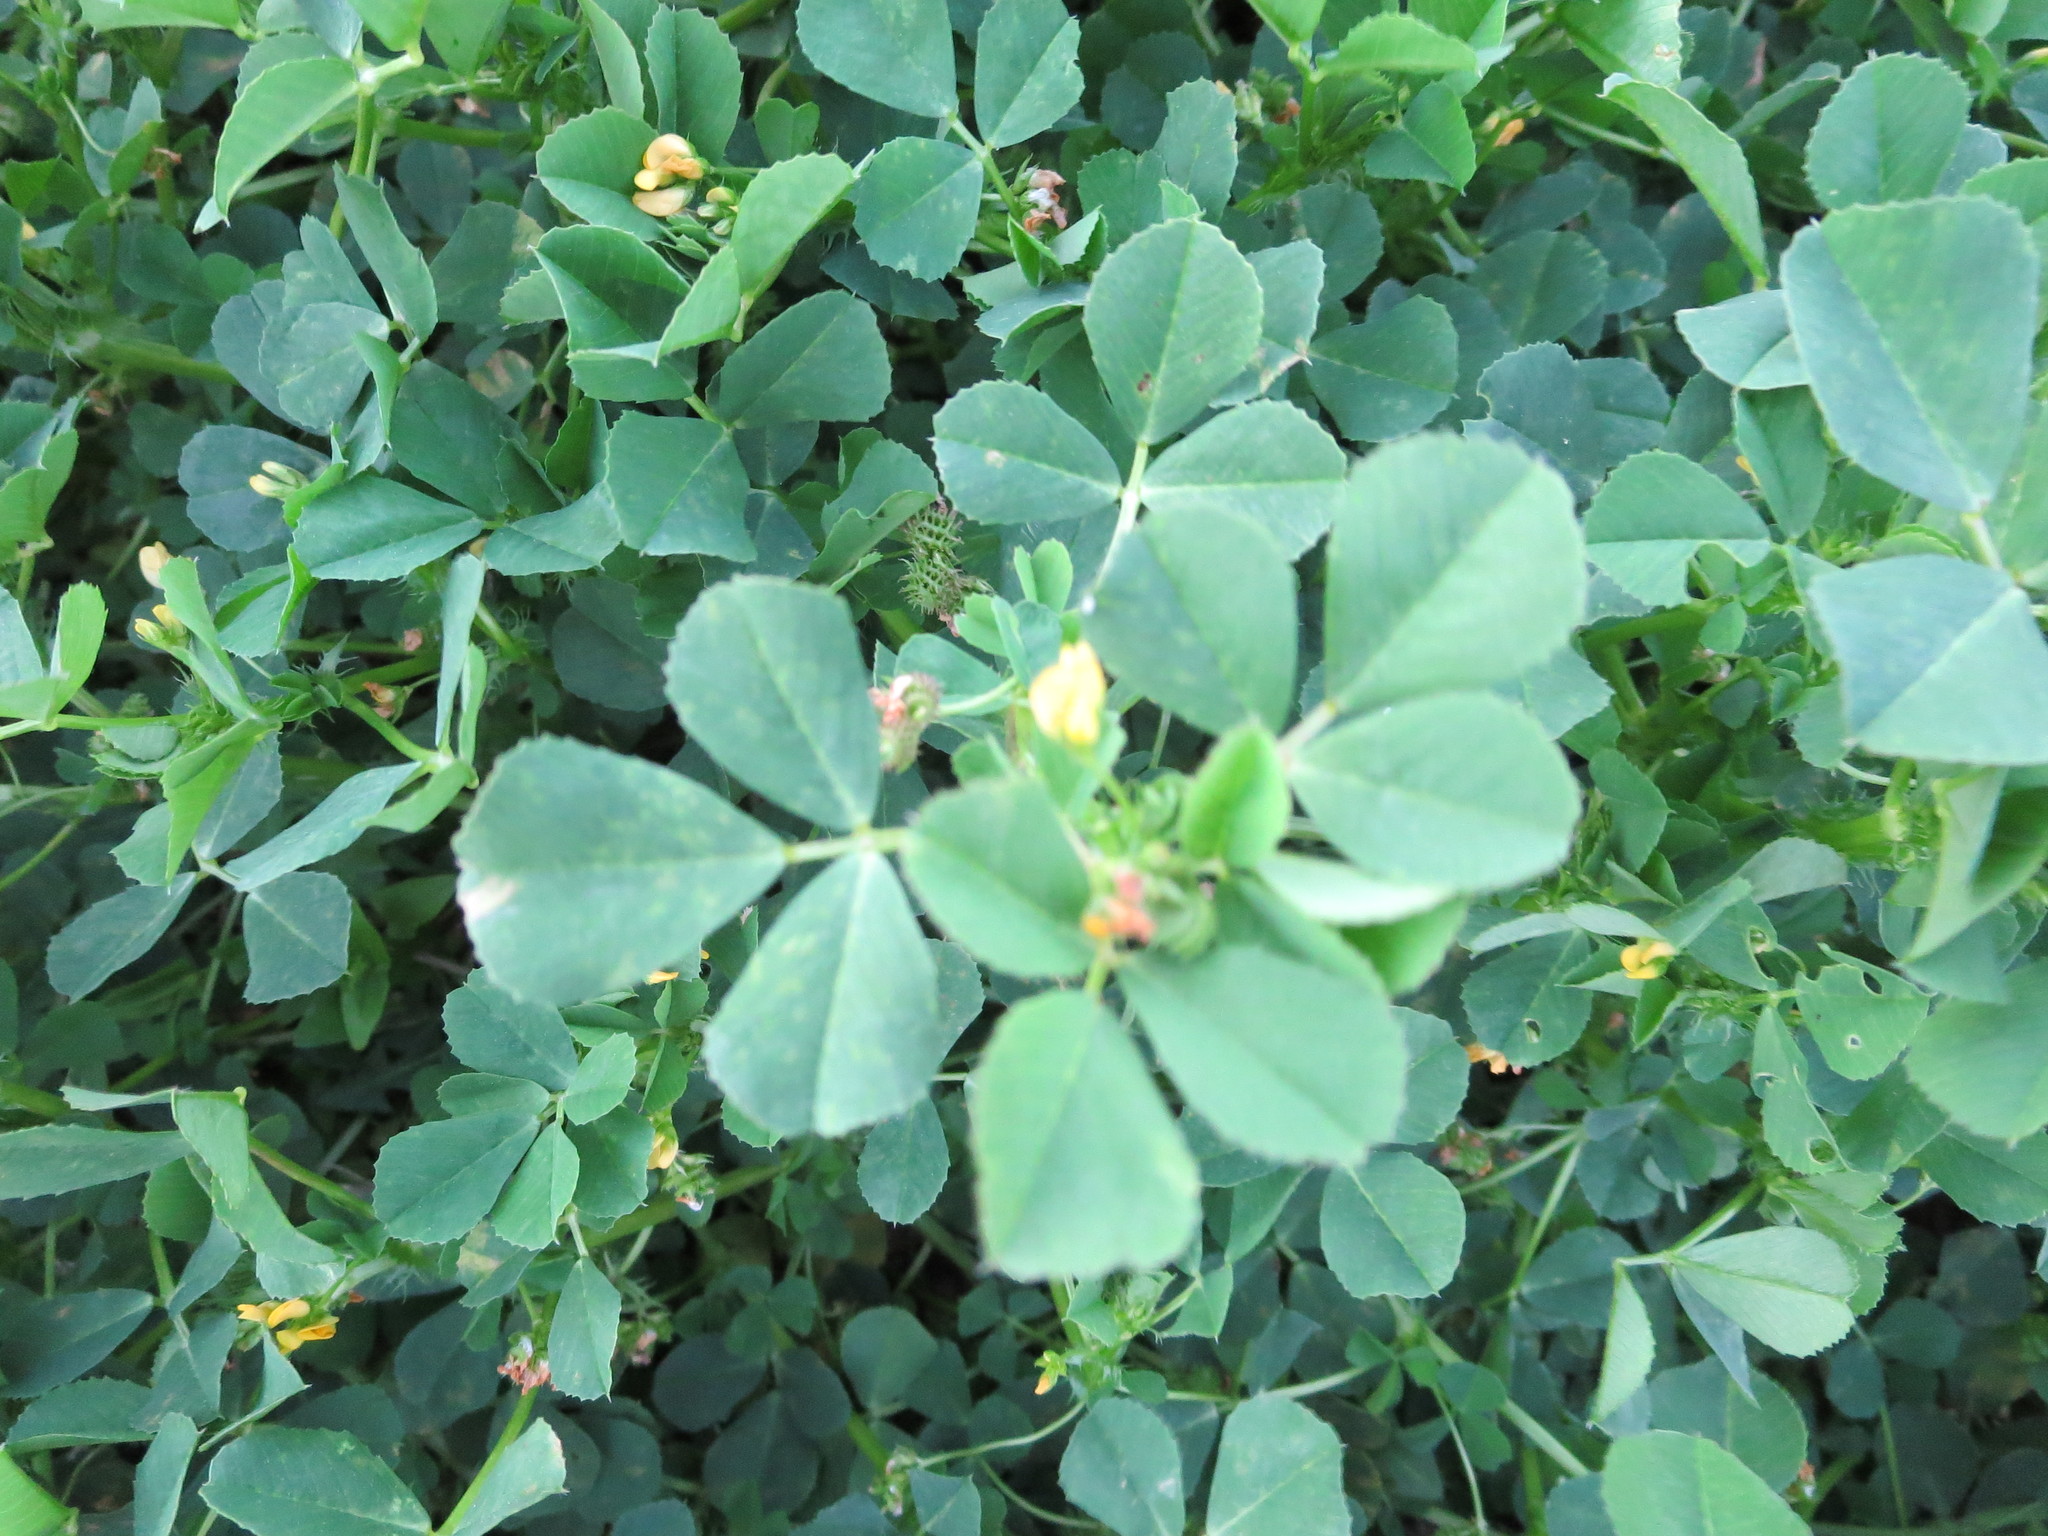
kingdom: Plantae
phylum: Tracheophyta
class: Magnoliopsida
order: Fabales
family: Fabaceae
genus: Medicago
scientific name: Medicago polymorpha
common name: Burclover
